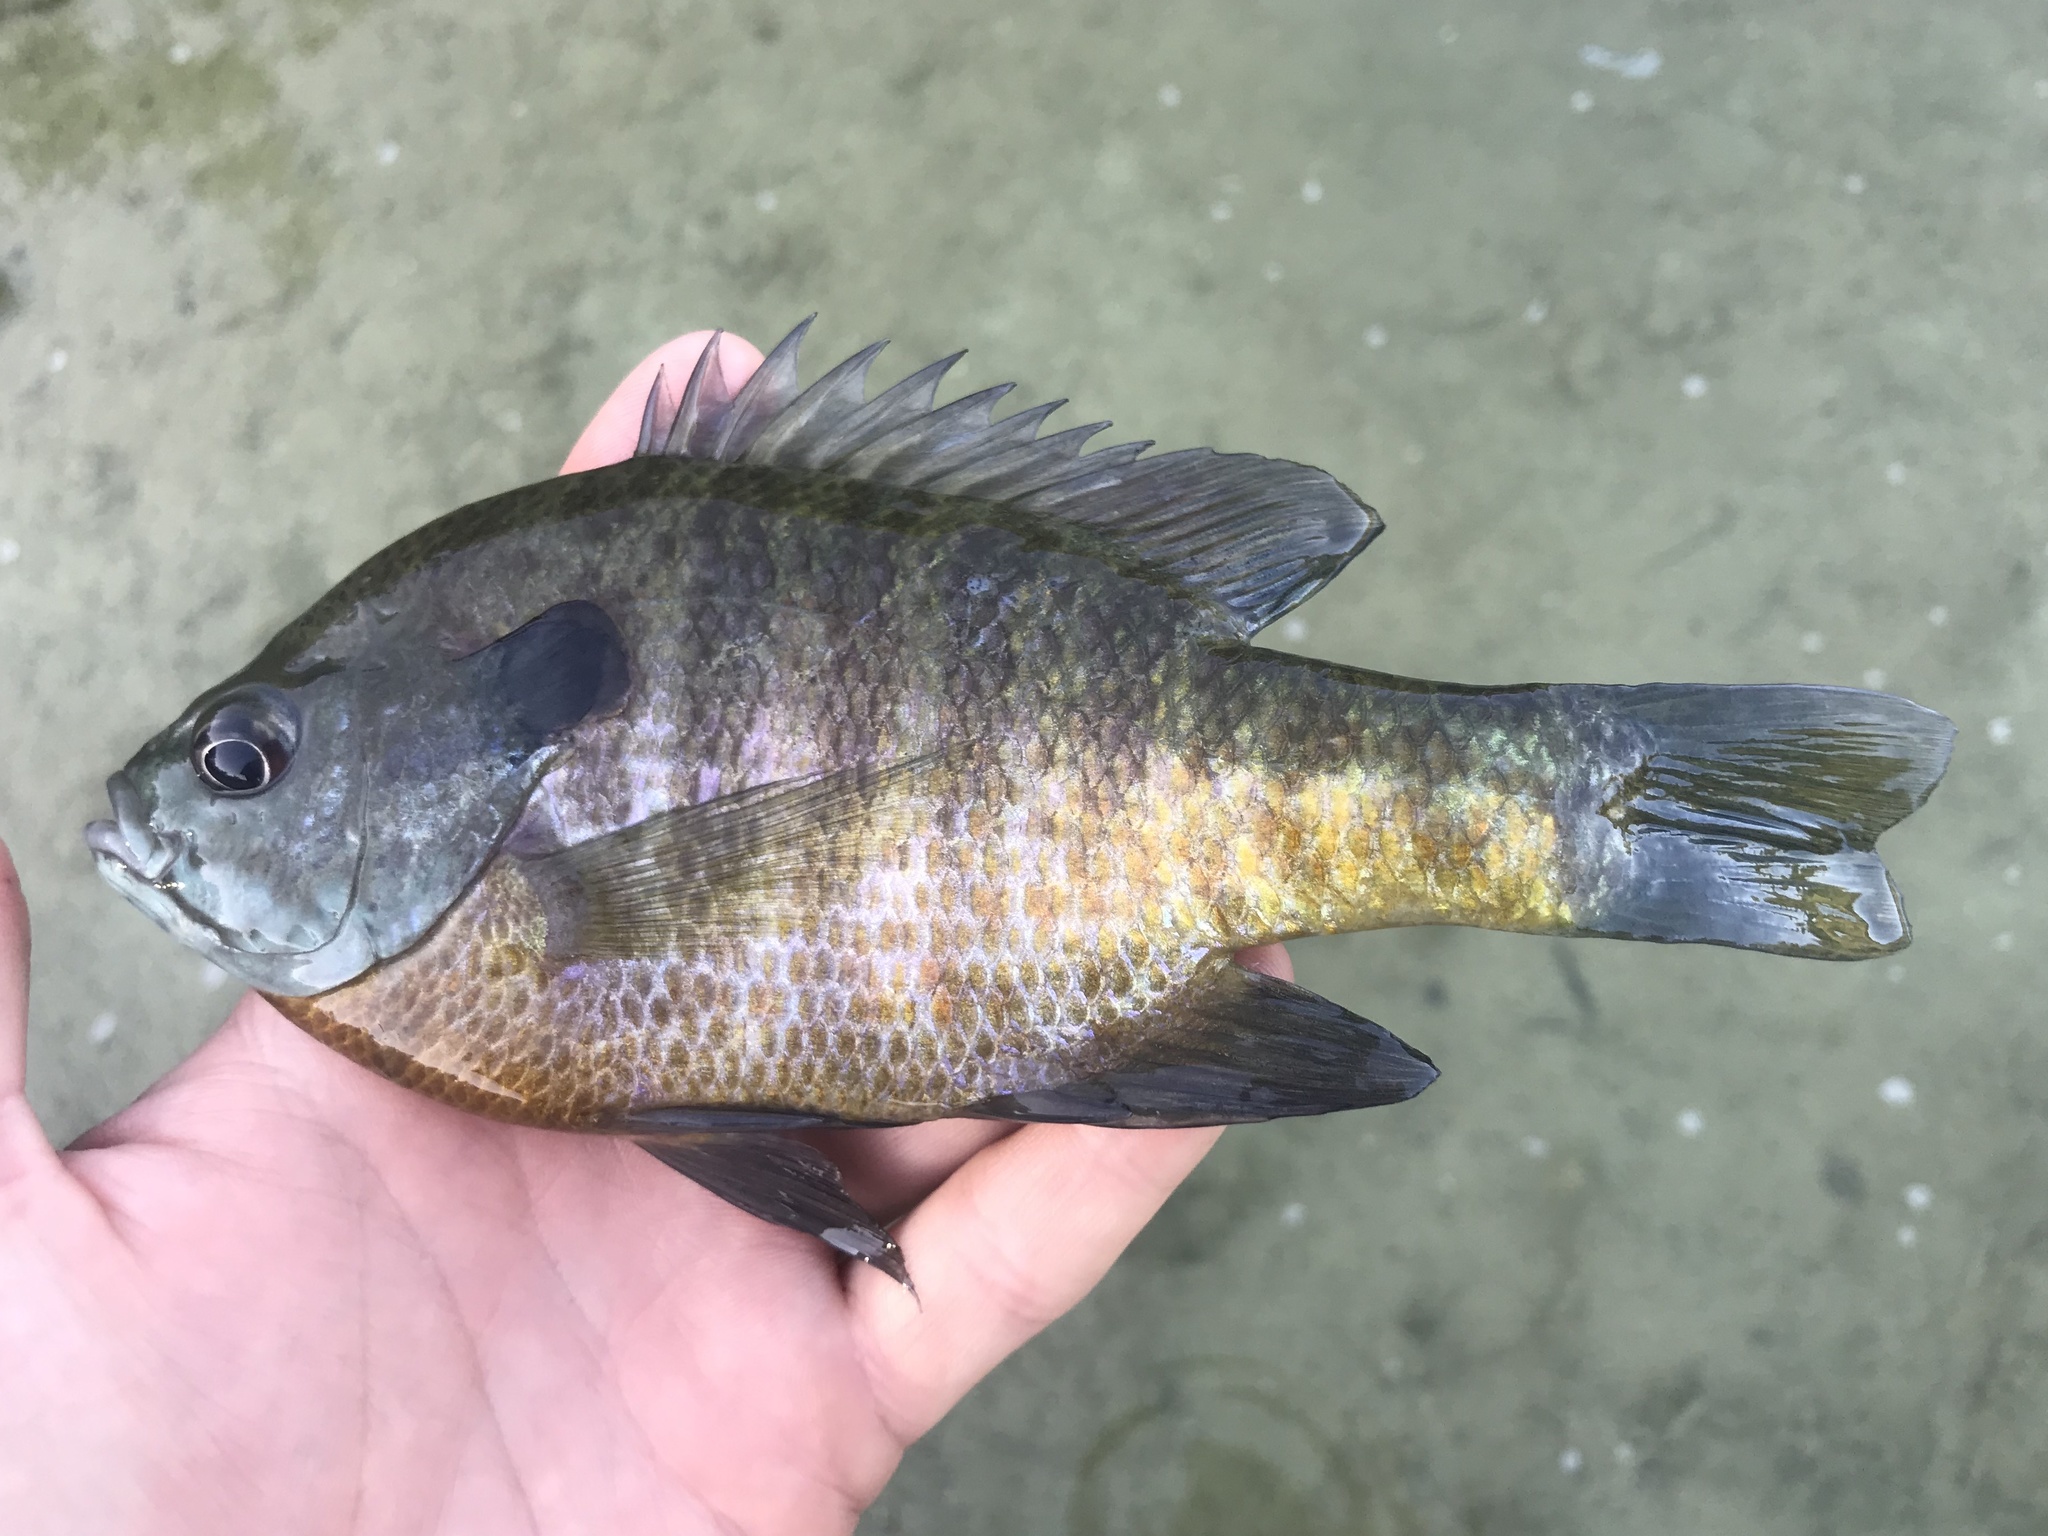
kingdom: Animalia
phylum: Chordata
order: Perciformes
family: Centrarchidae
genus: Lepomis
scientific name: Lepomis macrochirus
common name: Bluegill
